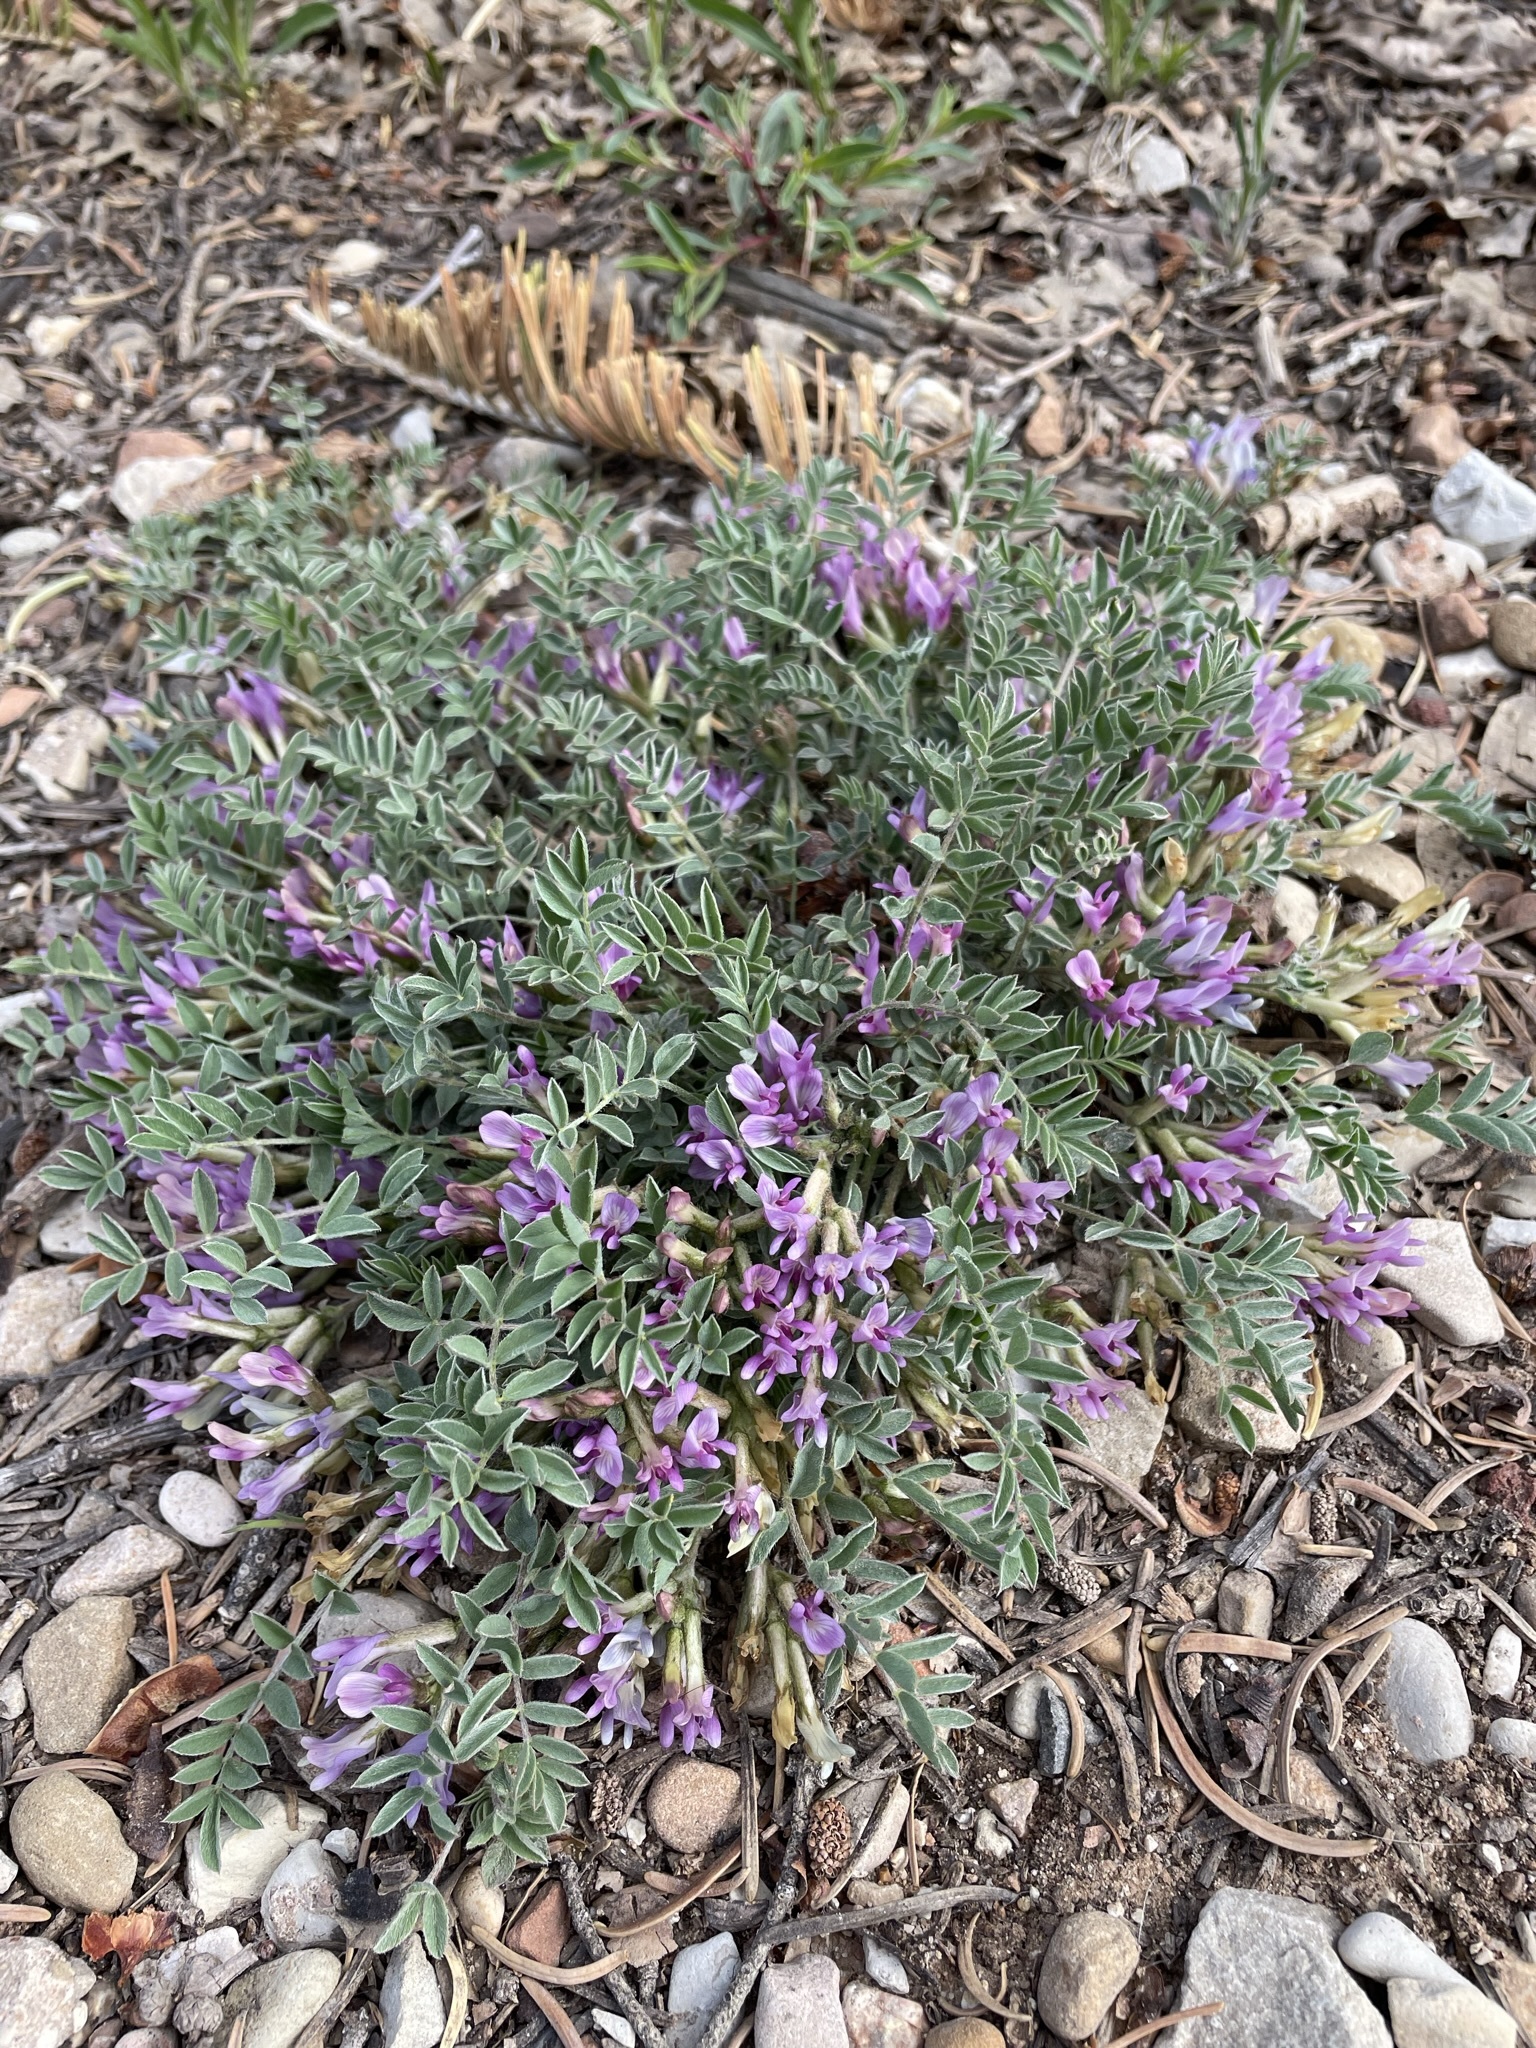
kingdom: Plantae
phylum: Tracheophyta
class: Magnoliopsida
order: Fabales
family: Fabaceae
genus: Astragalus
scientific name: Astragalus concordius
